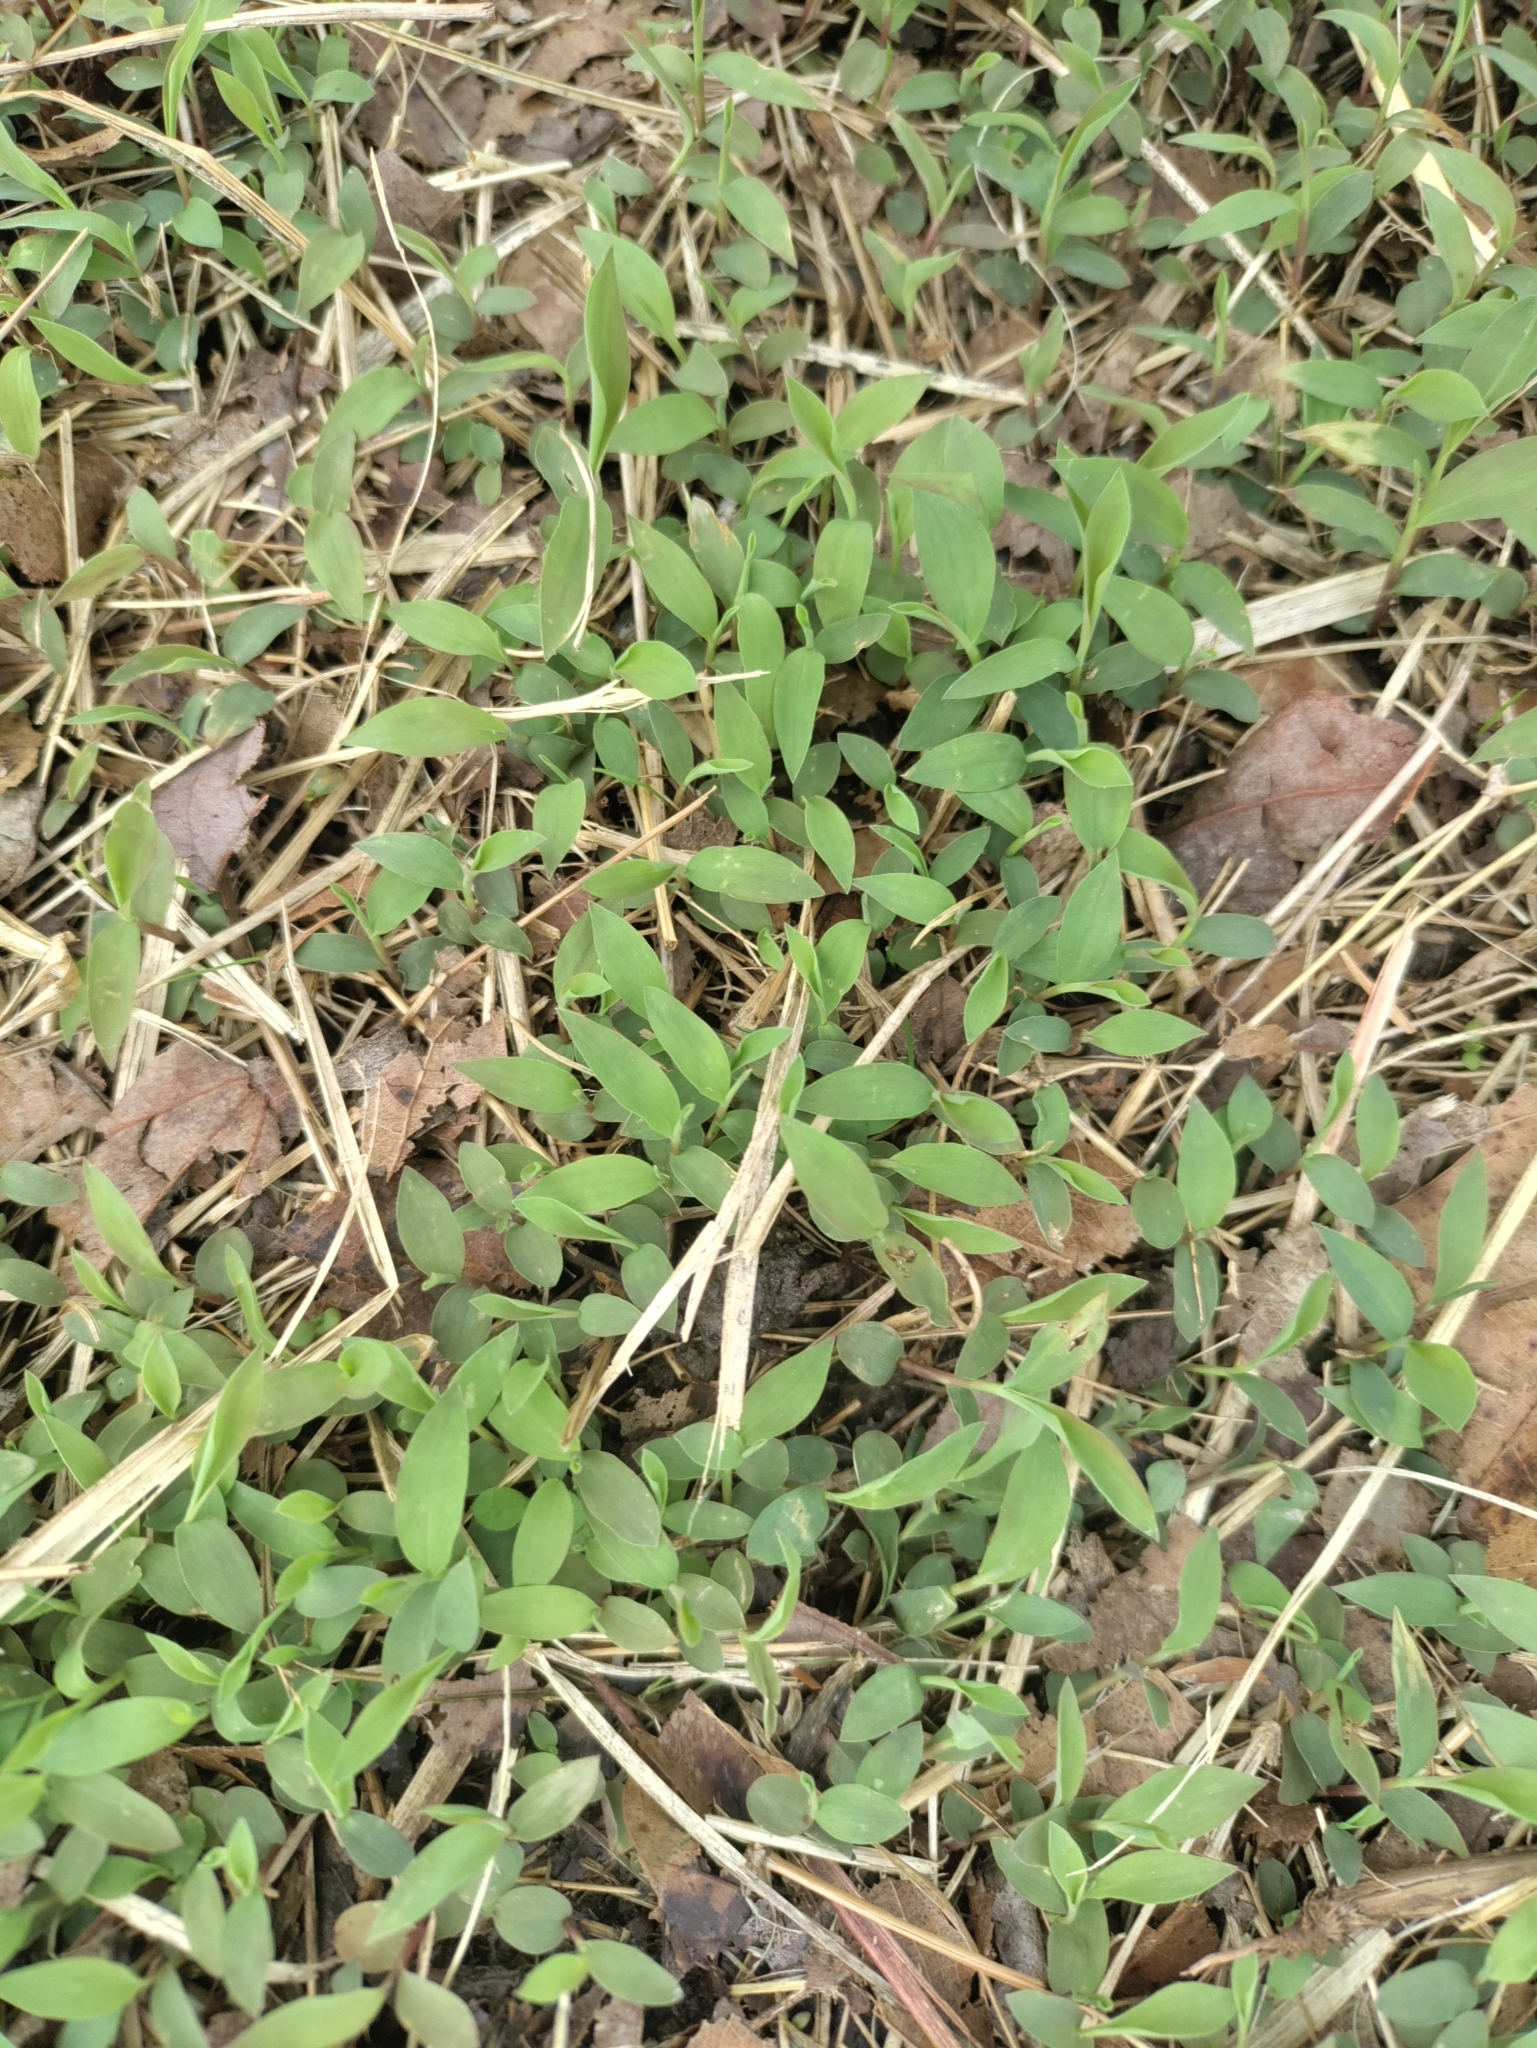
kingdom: Plantae
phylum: Tracheophyta
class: Liliopsida
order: Poales
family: Poaceae
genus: Microstegium
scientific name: Microstegium vimineum
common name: Japanese stiltgrass
